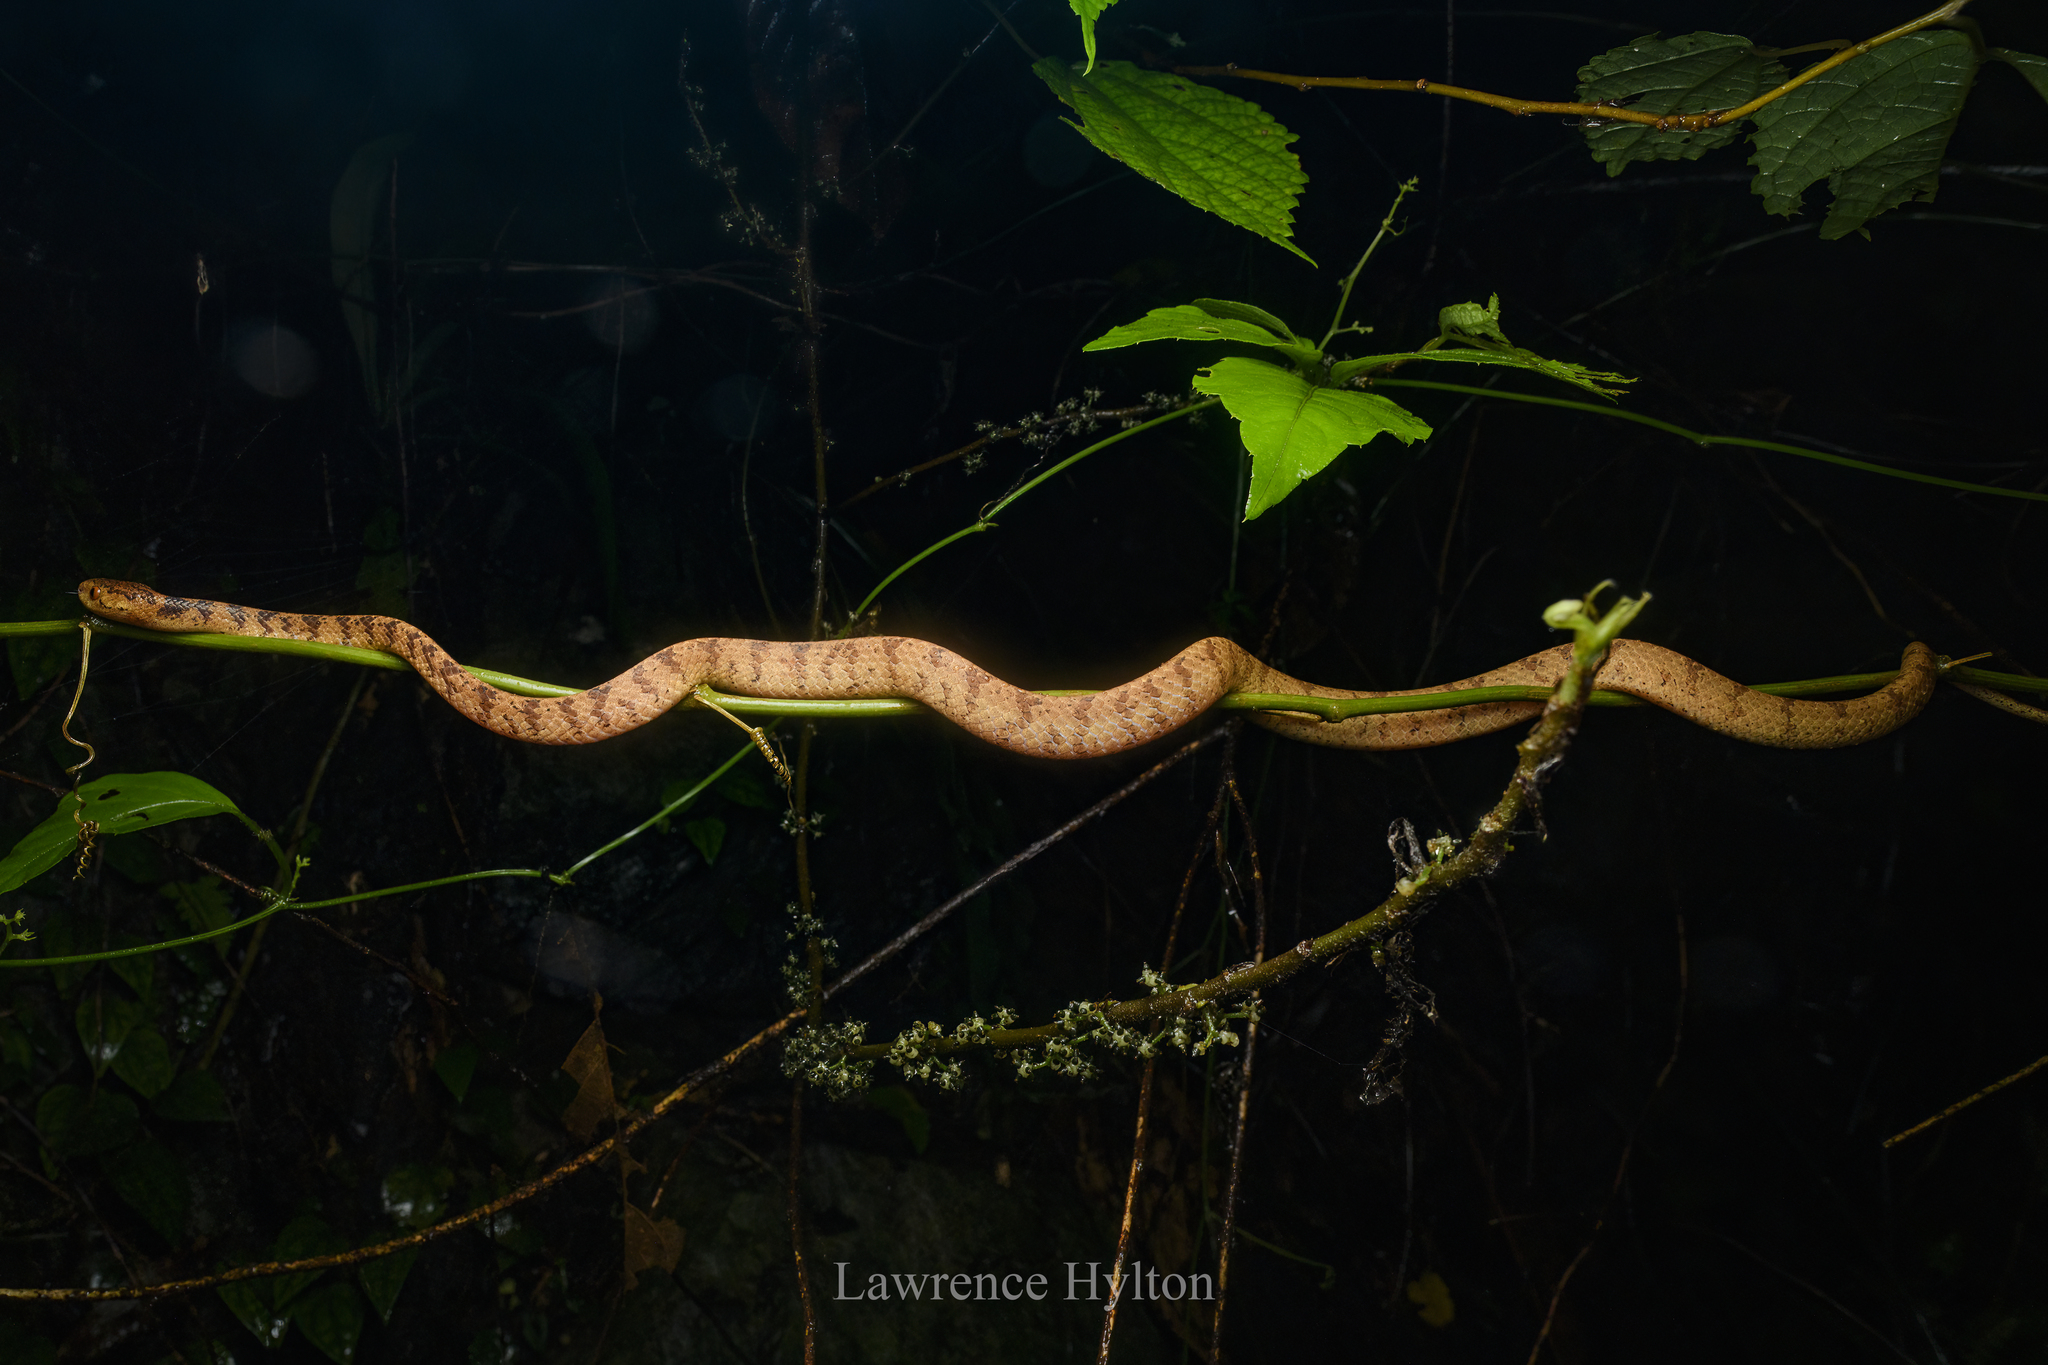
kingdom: Animalia
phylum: Chordata
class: Squamata
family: Pareidae
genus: Pareas
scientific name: Pareas chinensis
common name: Chinese slug snake
